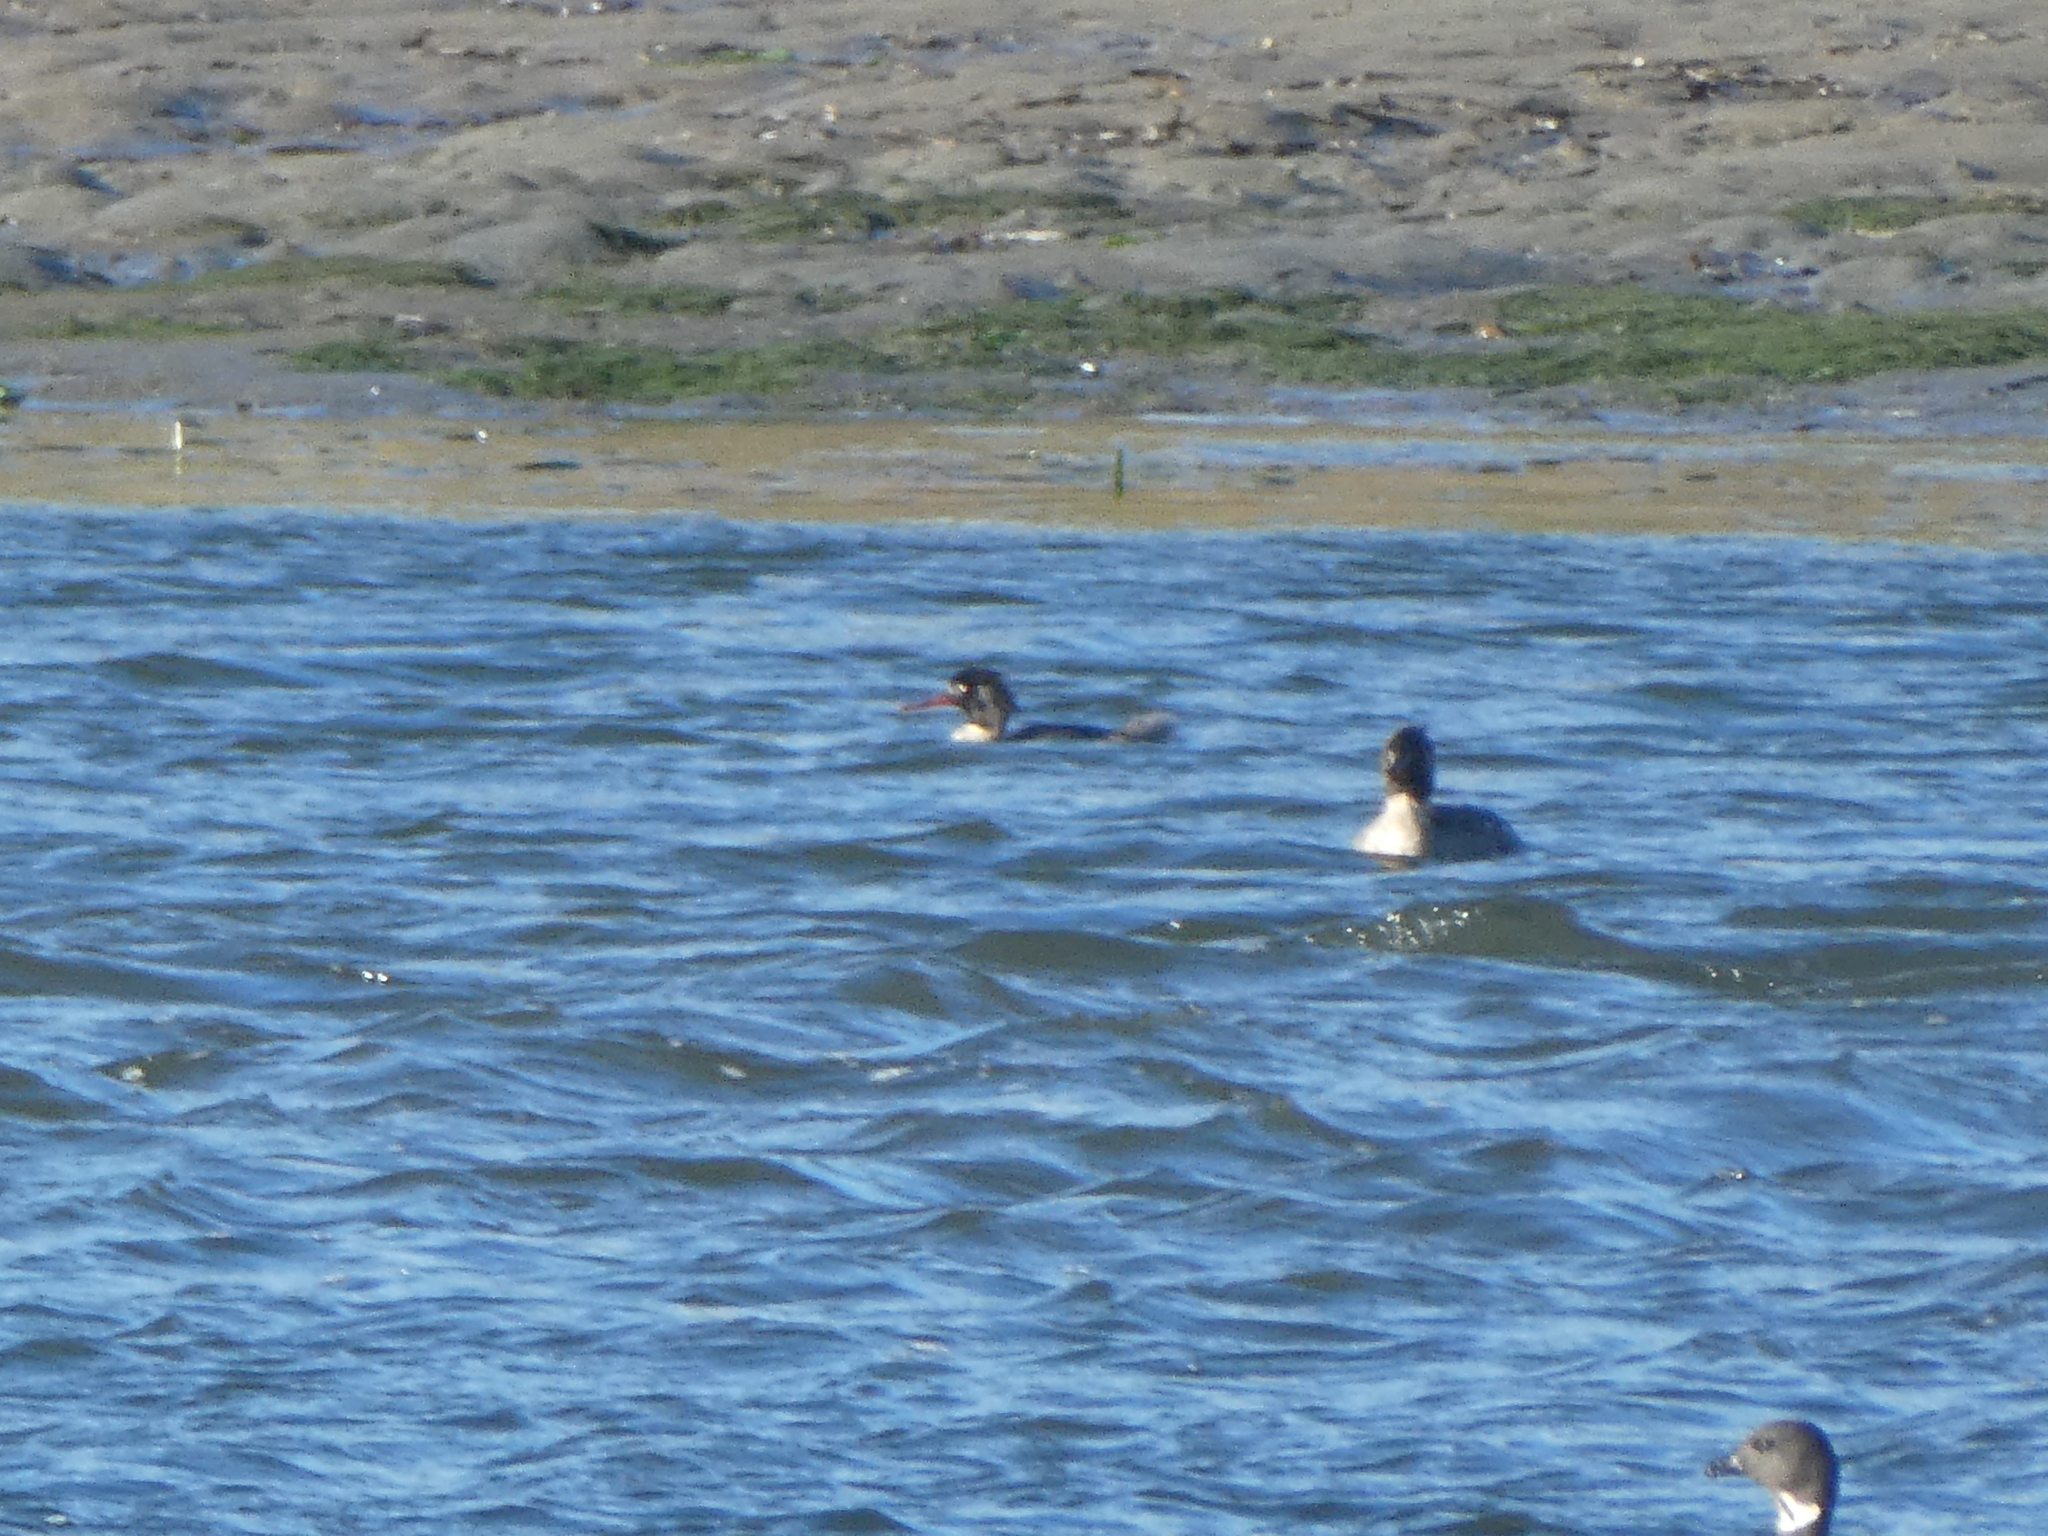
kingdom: Animalia
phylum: Chordata
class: Aves
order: Anseriformes
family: Anatidae
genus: Mergus
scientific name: Mergus serrator
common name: Red-breasted merganser
